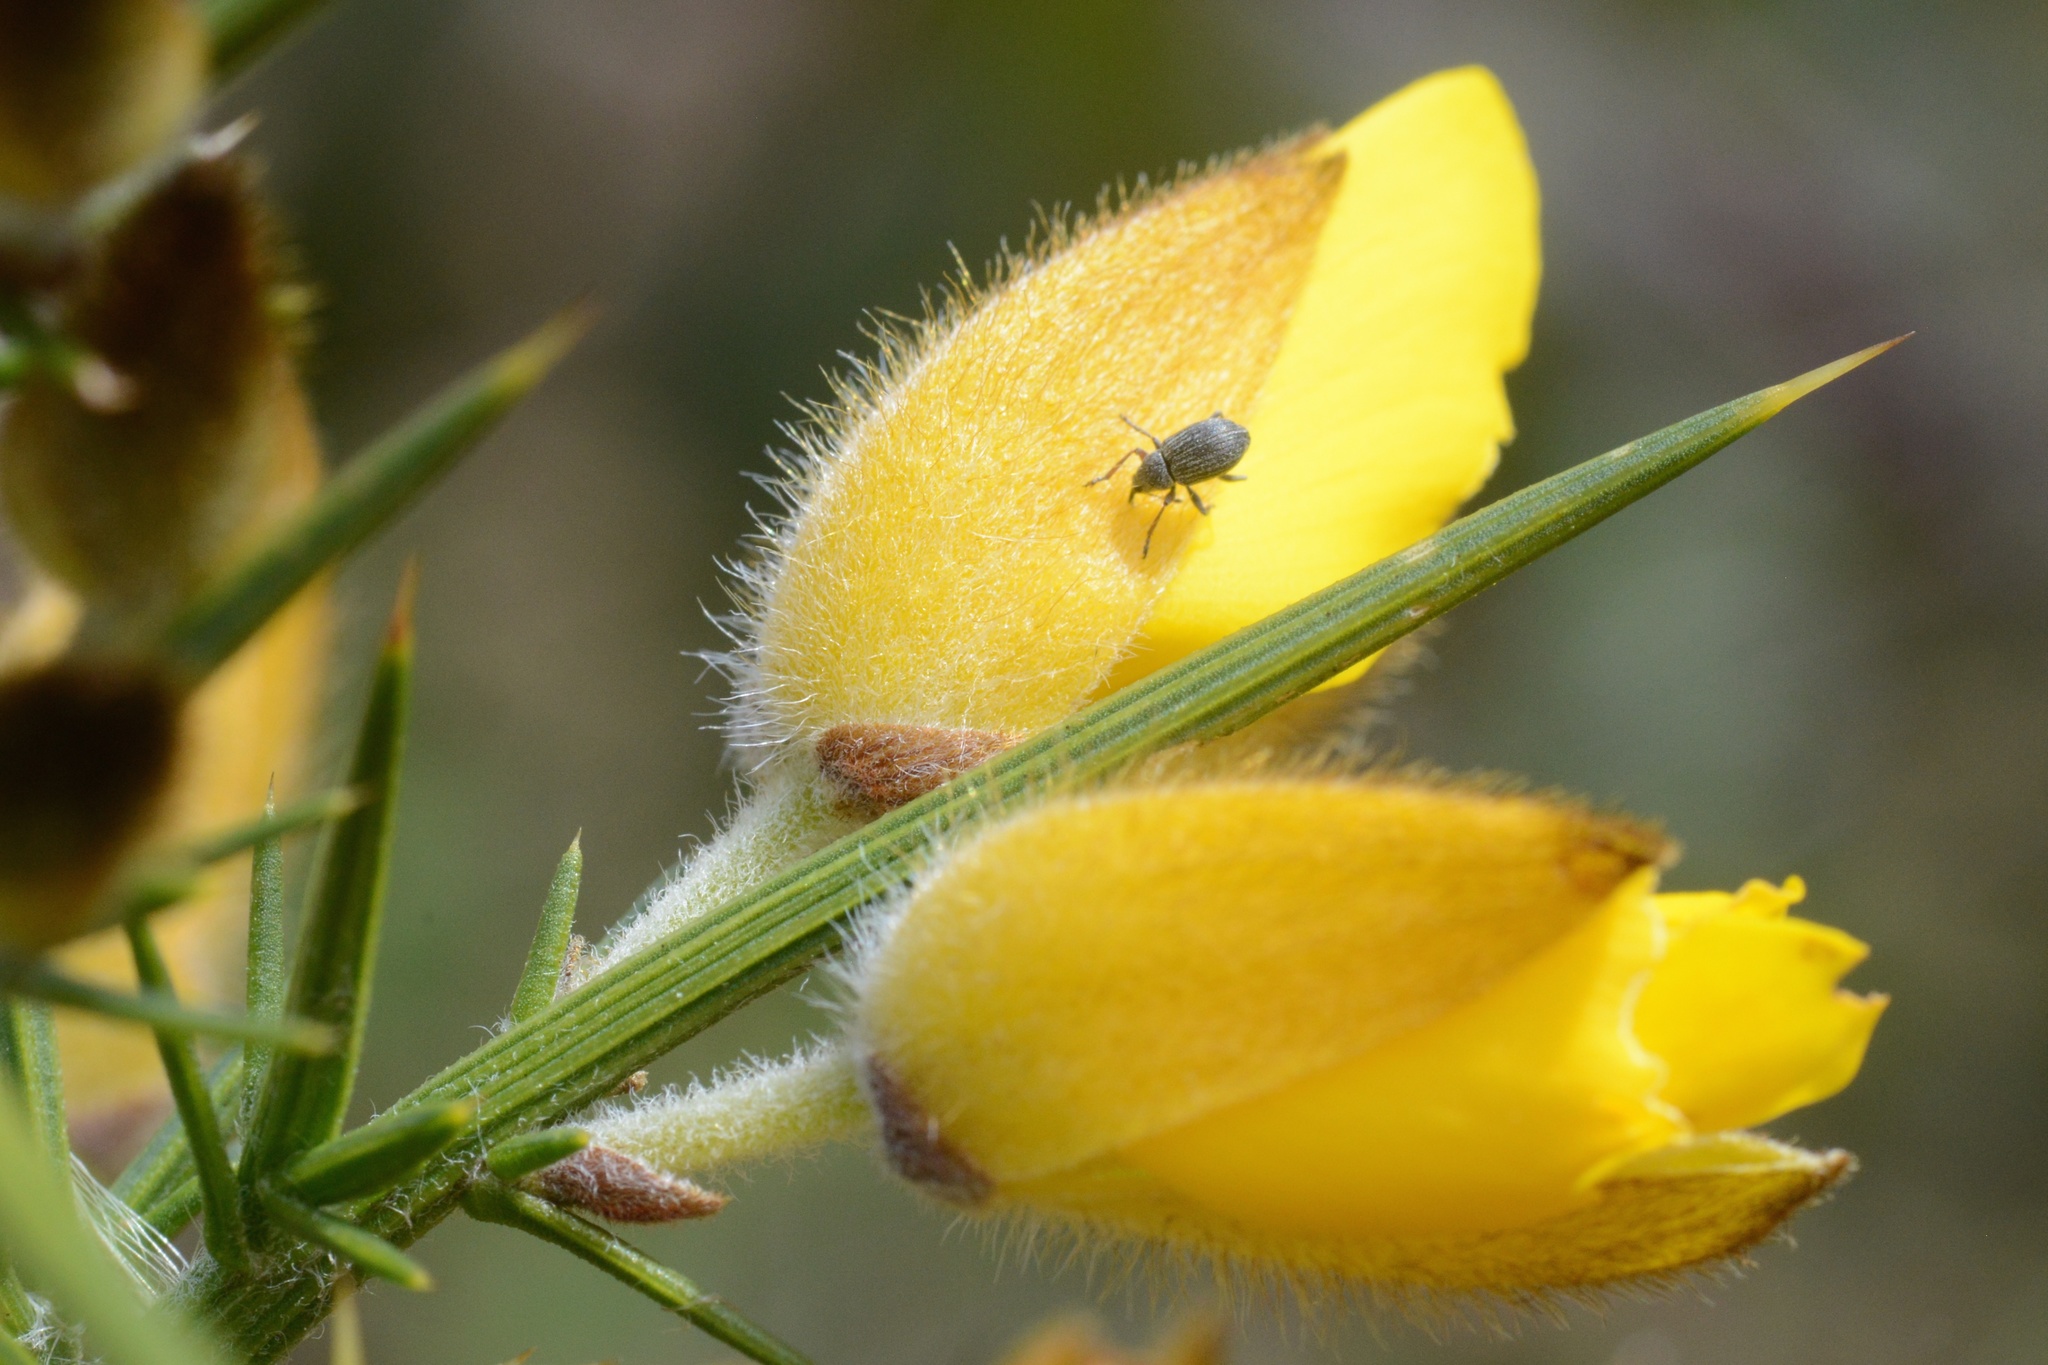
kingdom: Plantae
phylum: Tracheophyta
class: Magnoliopsida
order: Fabales
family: Fabaceae
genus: Ulex
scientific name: Ulex europaeus
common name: Common gorse
